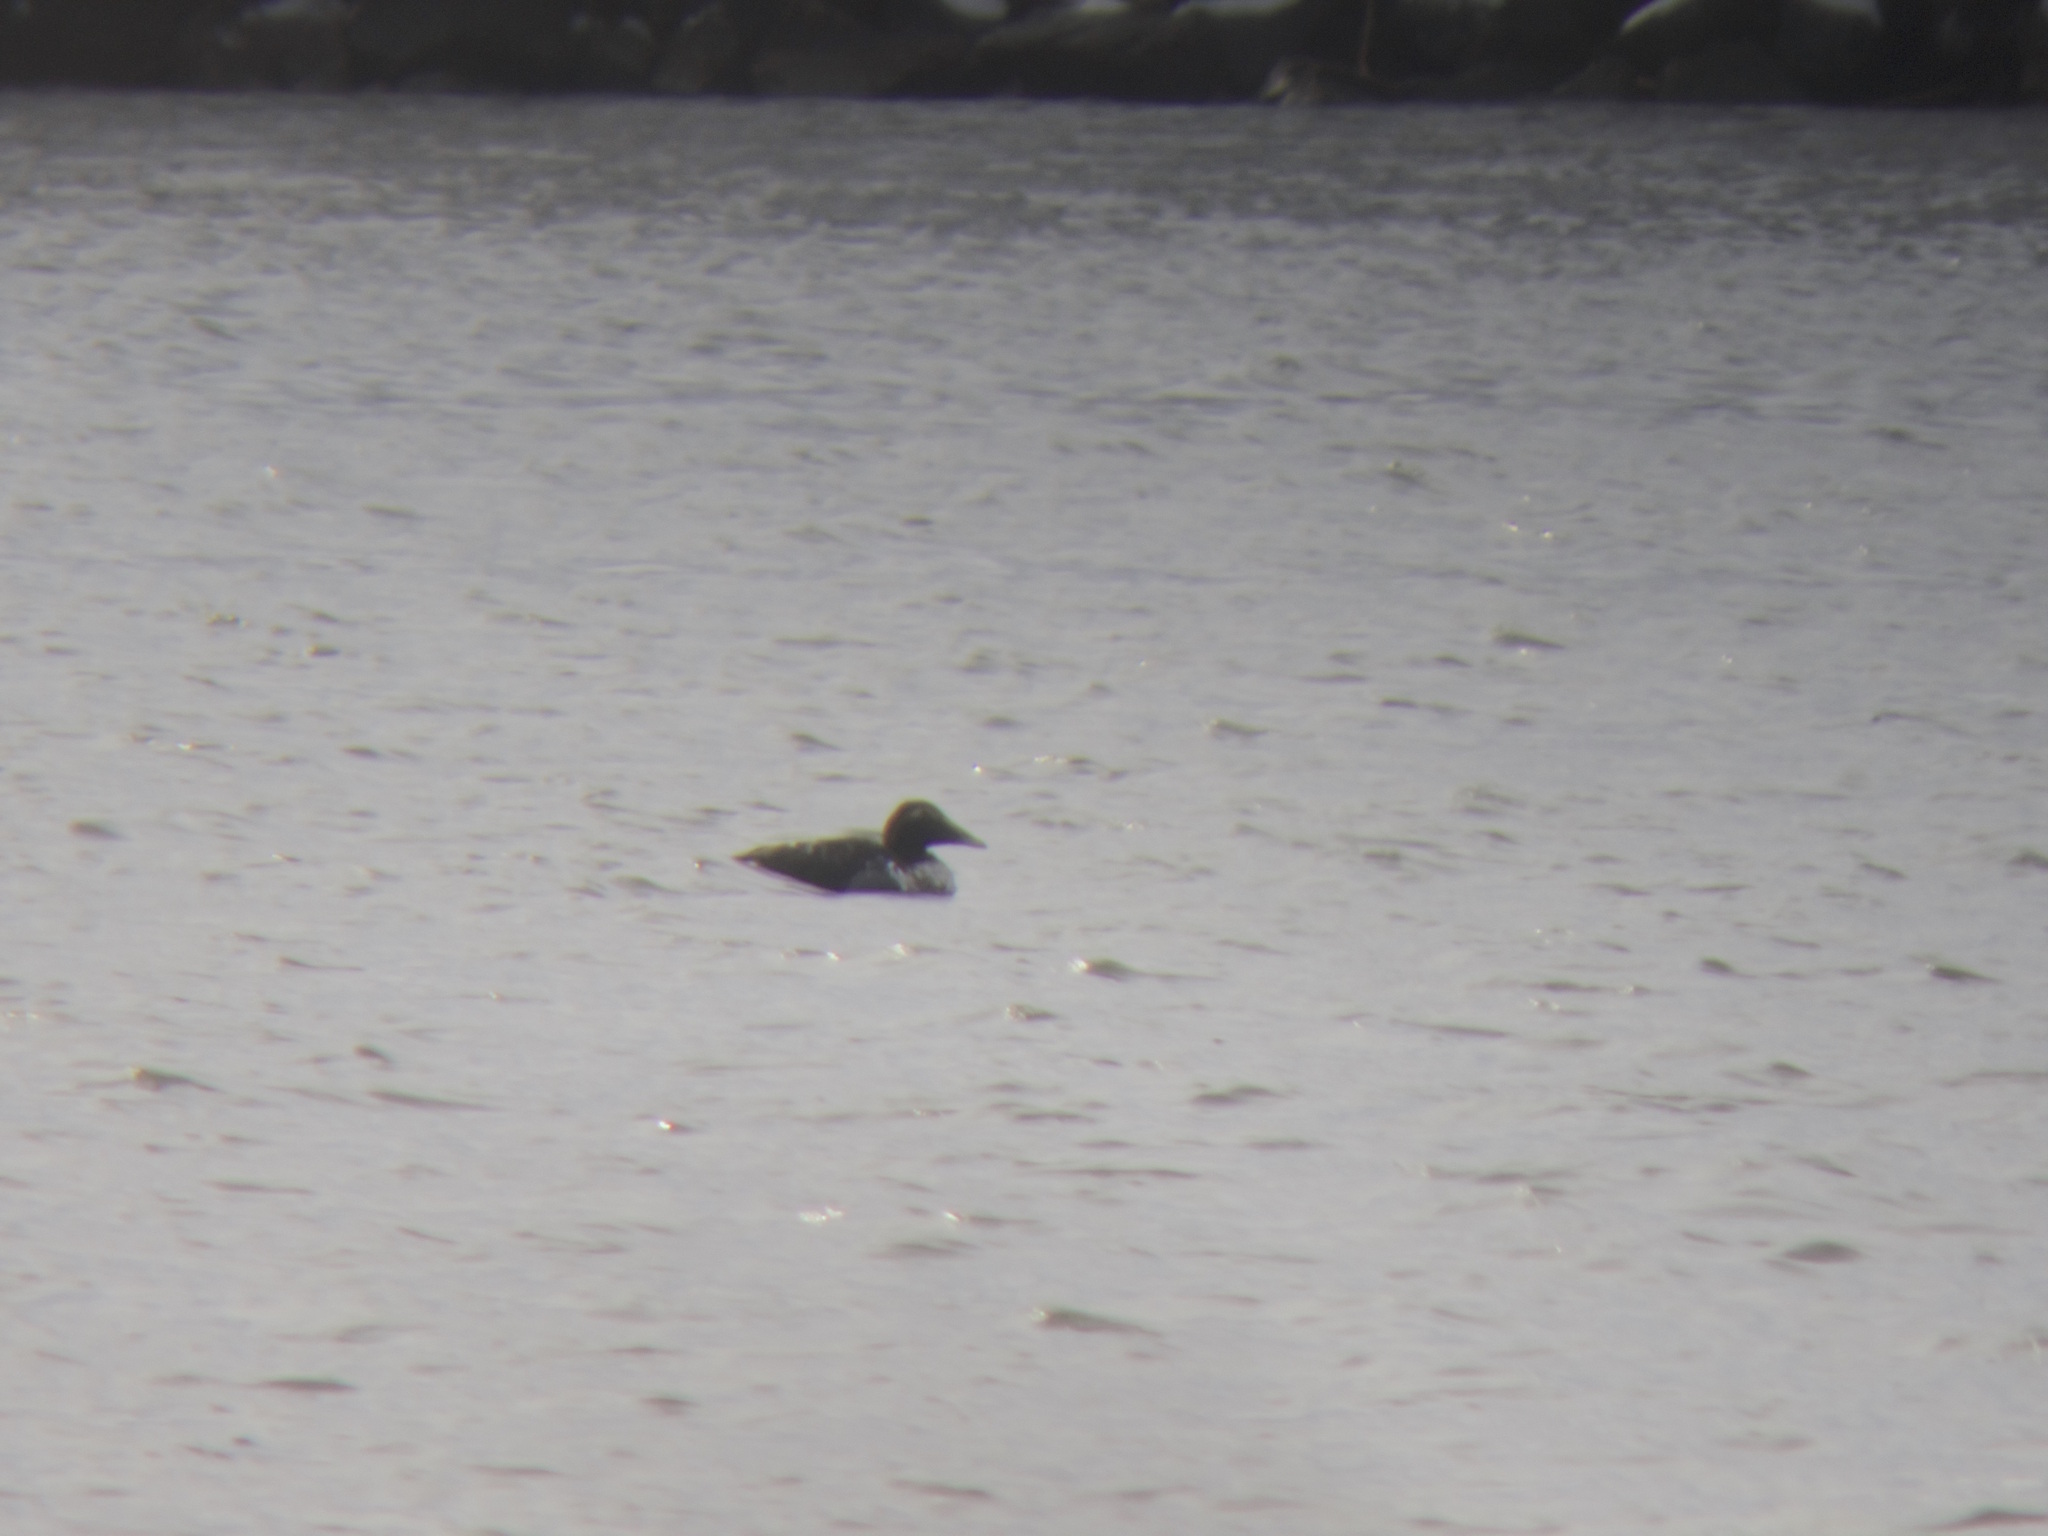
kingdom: Animalia
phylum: Chordata
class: Aves
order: Anseriformes
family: Anatidae
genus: Somateria
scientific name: Somateria mollissima
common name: Common eider
